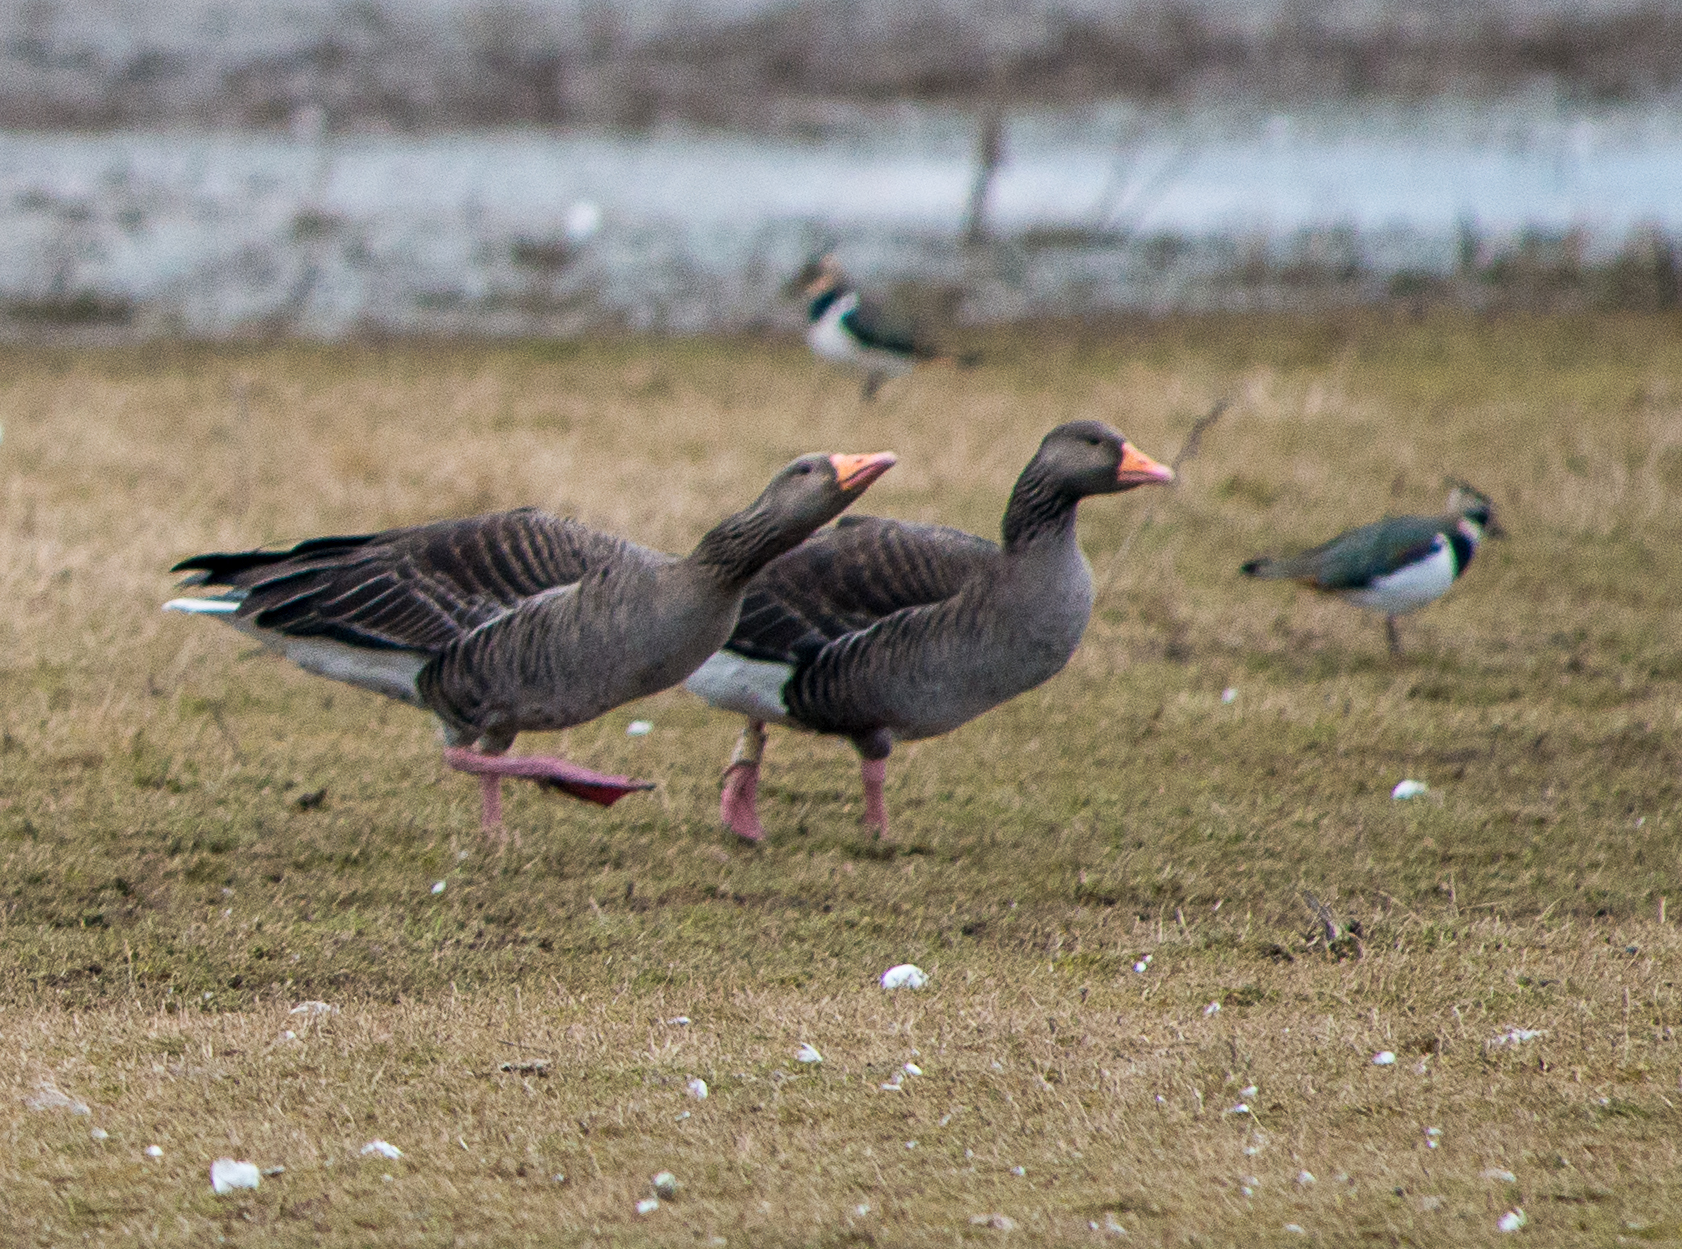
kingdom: Animalia
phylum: Chordata
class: Aves
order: Anseriformes
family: Anatidae
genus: Anser
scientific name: Anser anser
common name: Greylag goose
